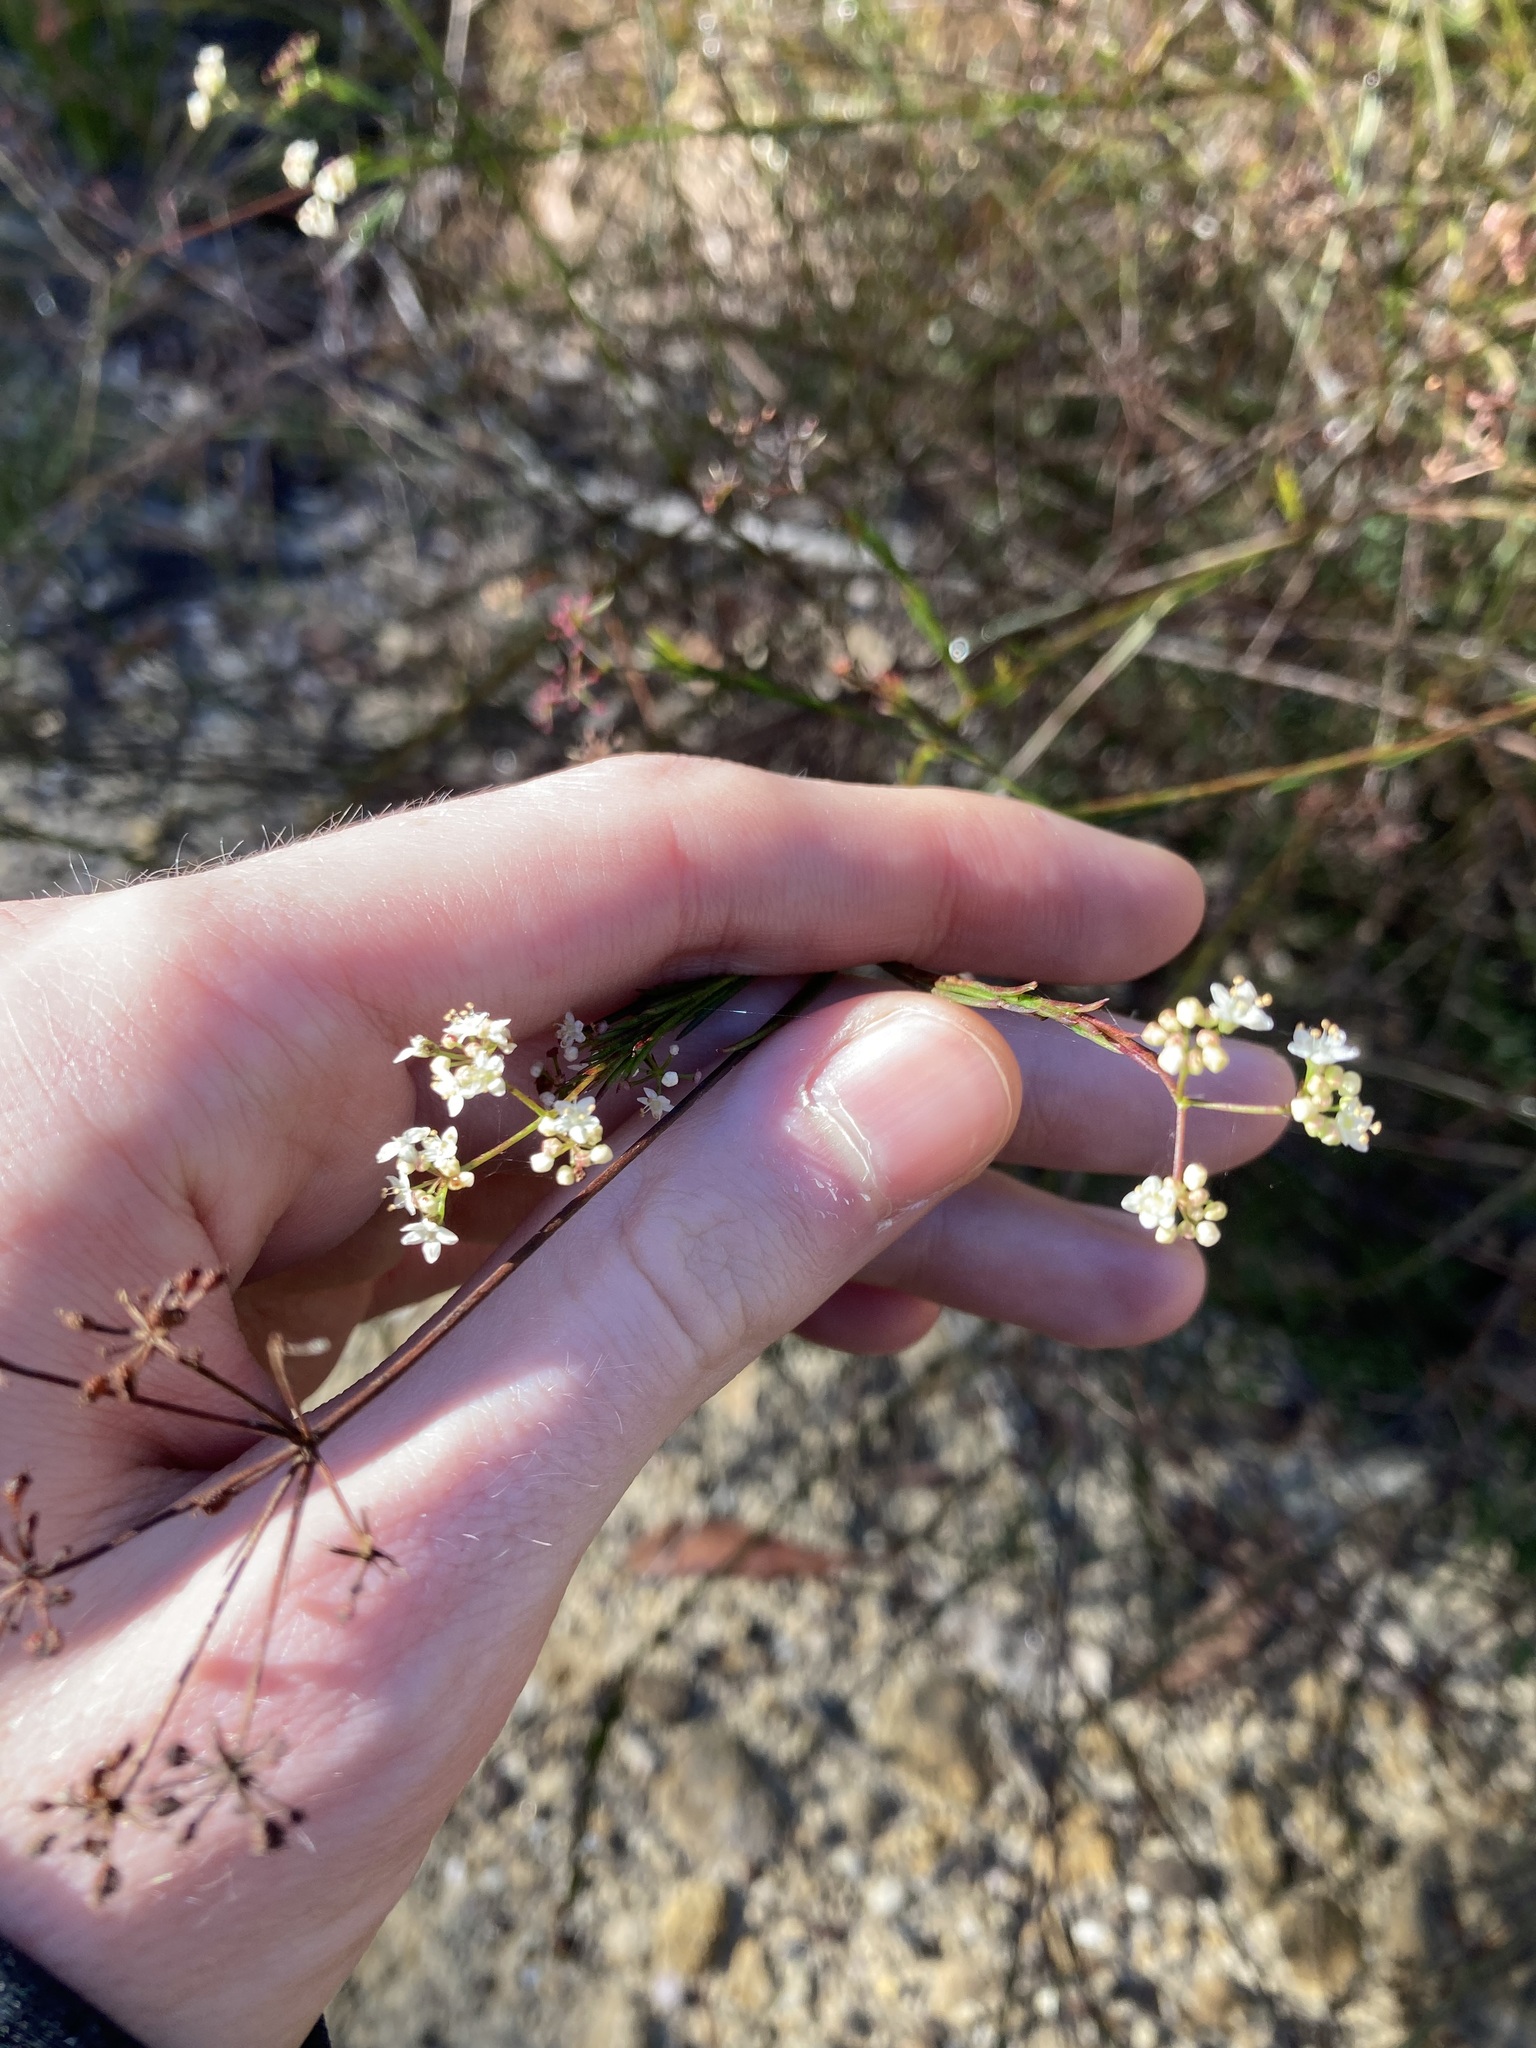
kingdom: Plantae
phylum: Tracheophyta
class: Magnoliopsida
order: Apiales
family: Apiaceae
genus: Platysace
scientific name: Platysace linearifolia
